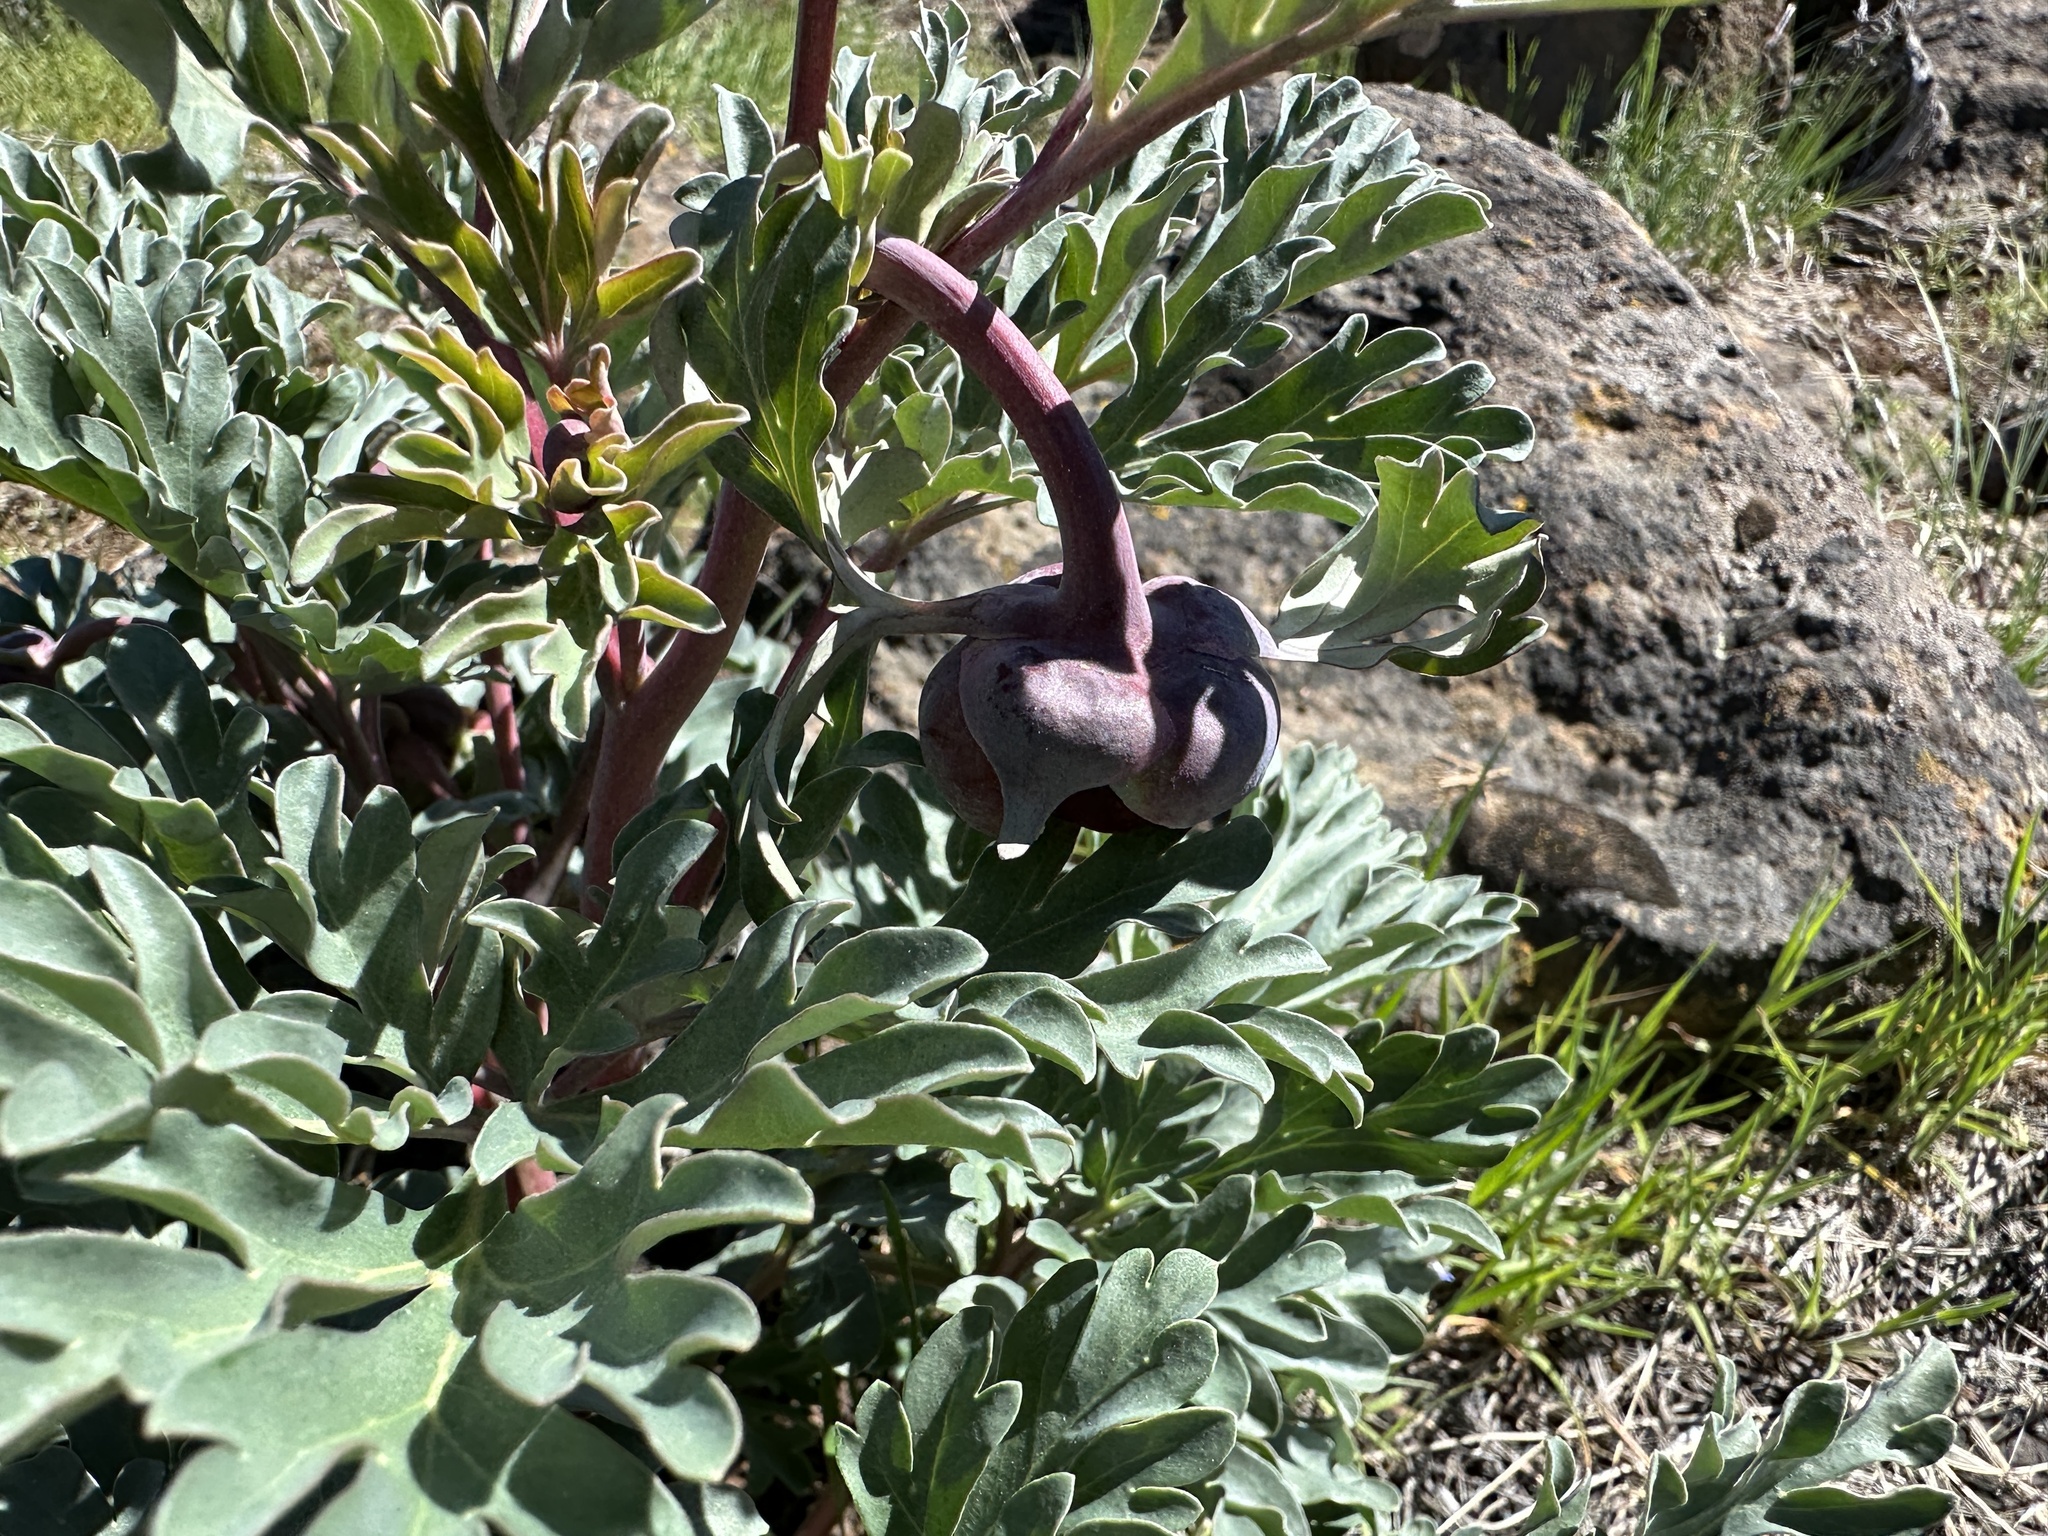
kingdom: Plantae
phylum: Tracheophyta
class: Magnoliopsida
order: Saxifragales
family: Paeoniaceae
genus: Paeonia
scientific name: Paeonia brownii
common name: Brown's peony
